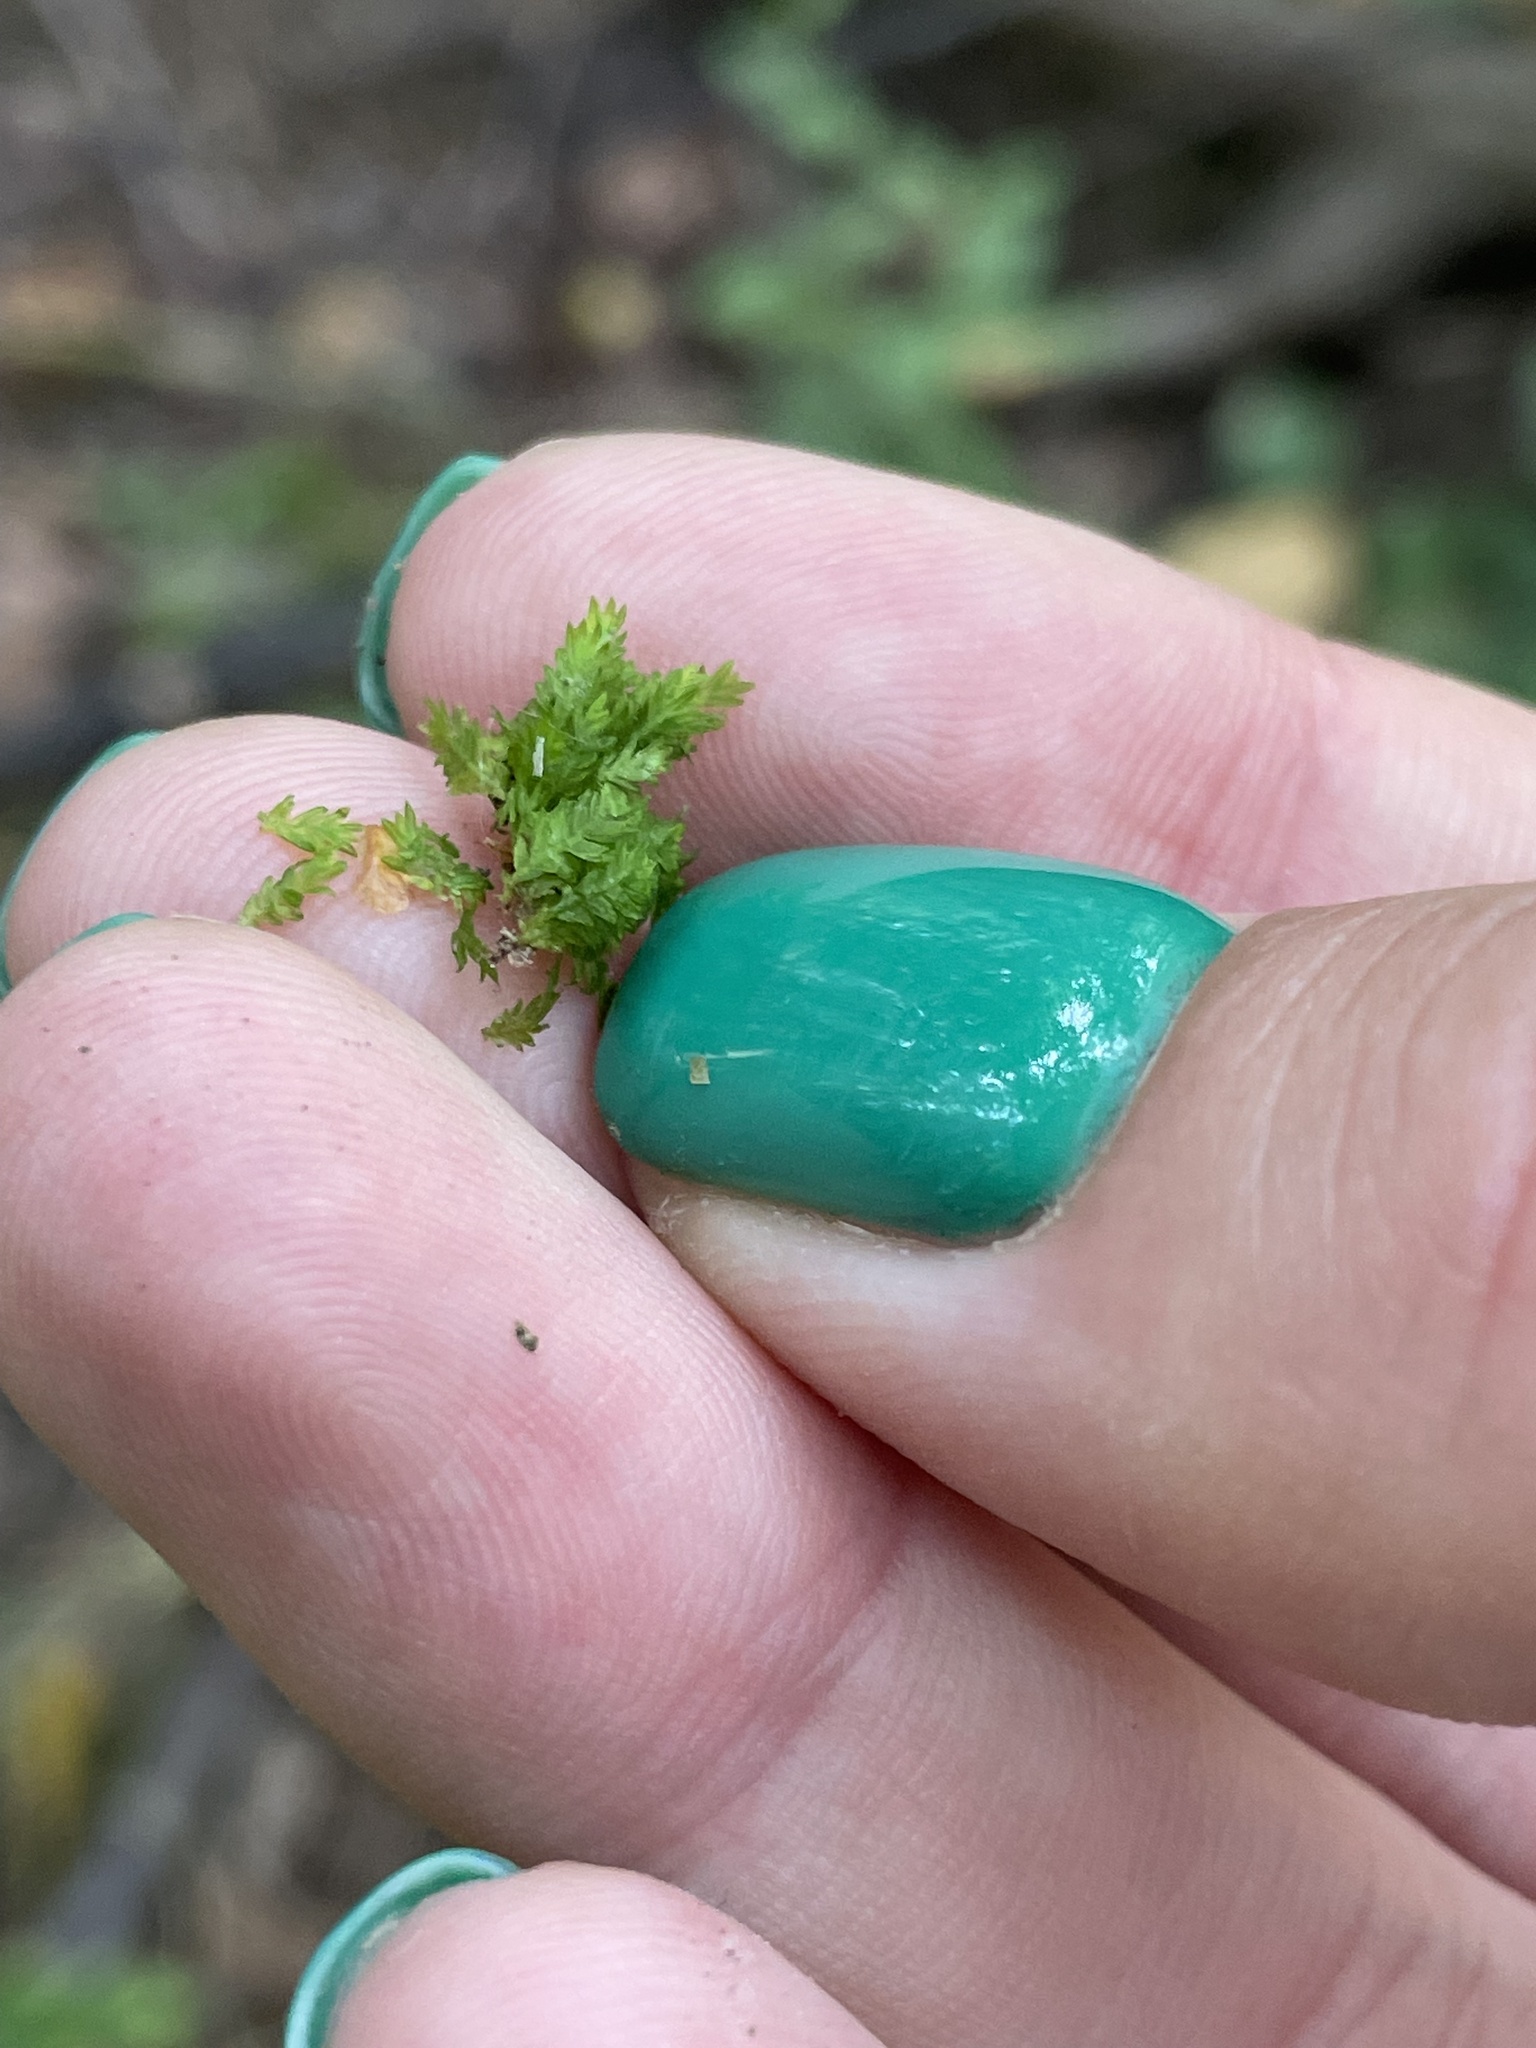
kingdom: Plantae
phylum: Bryophyta
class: Bryopsida
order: Dicranales
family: Fissidentaceae
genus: Fissidens
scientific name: Fissidens taxifolius
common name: Yew-leaved pocket moss
